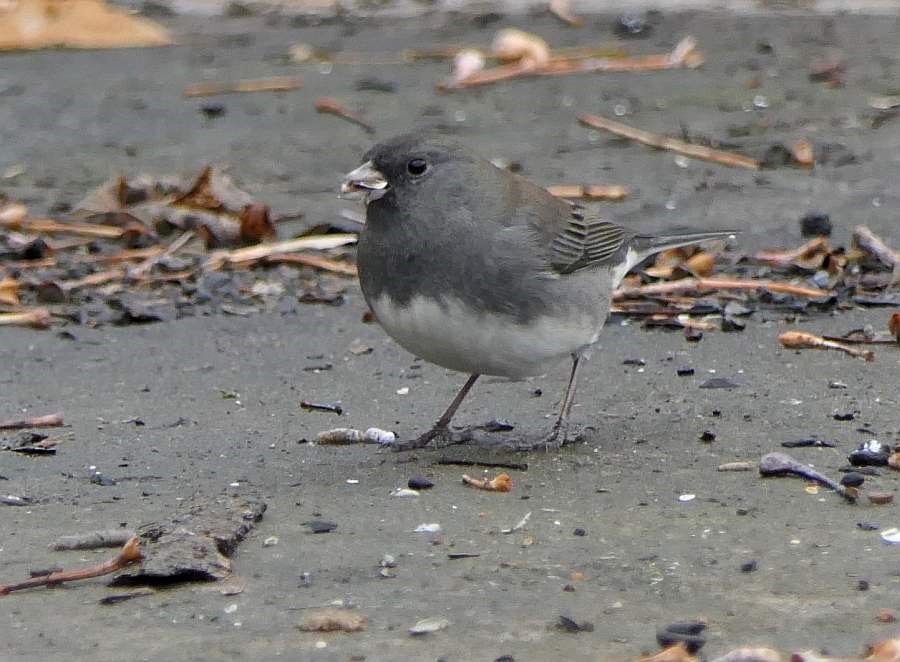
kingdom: Animalia
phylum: Chordata
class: Aves
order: Passeriformes
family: Passerellidae
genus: Junco
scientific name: Junco hyemalis
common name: Dark-eyed junco
